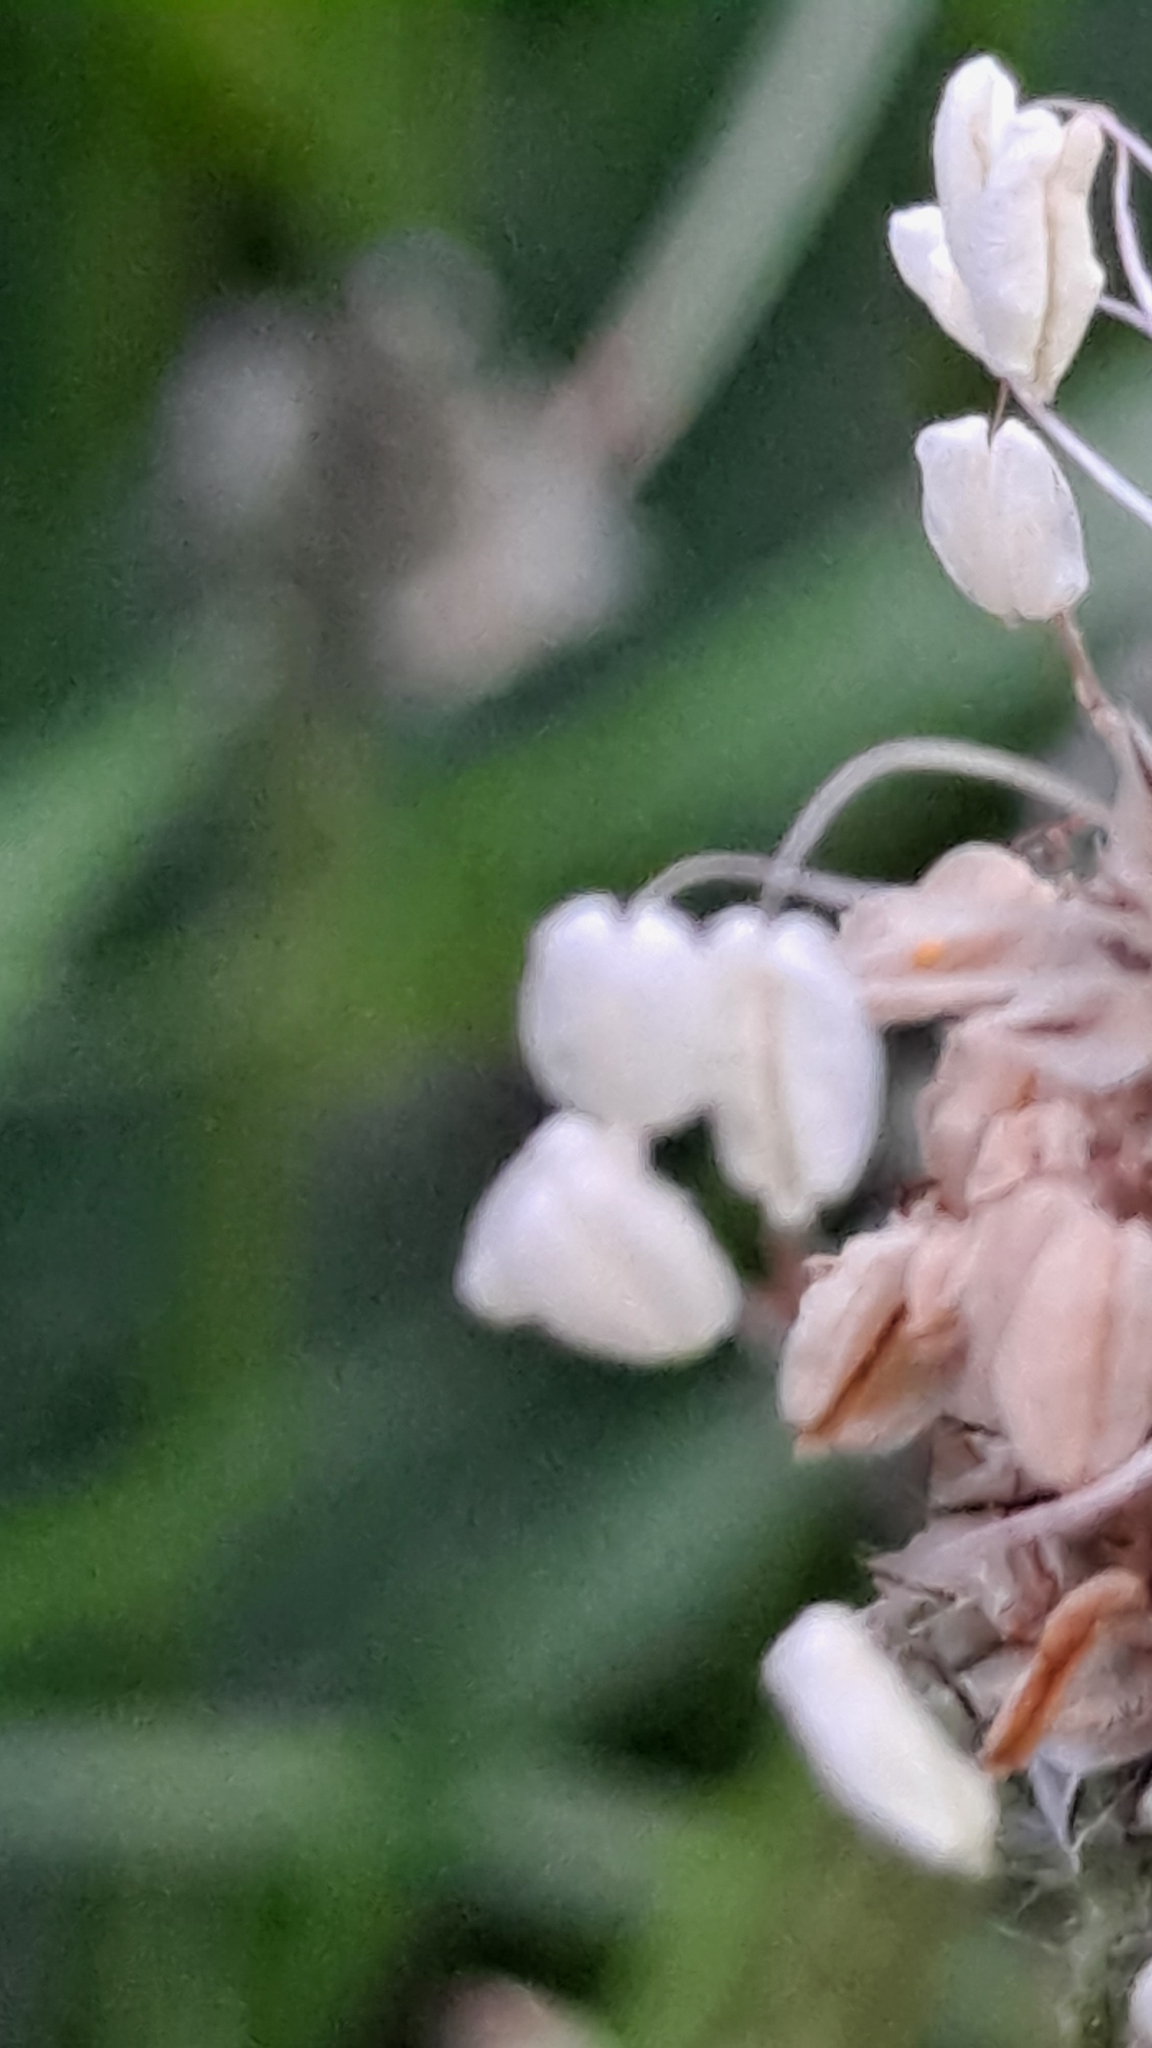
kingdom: Plantae
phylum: Tracheophyta
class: Magnoliopsida
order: Lamiales
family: Plantaginaceae
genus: Plantago
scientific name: Plantago lanceolata
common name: Ribwort plantain
